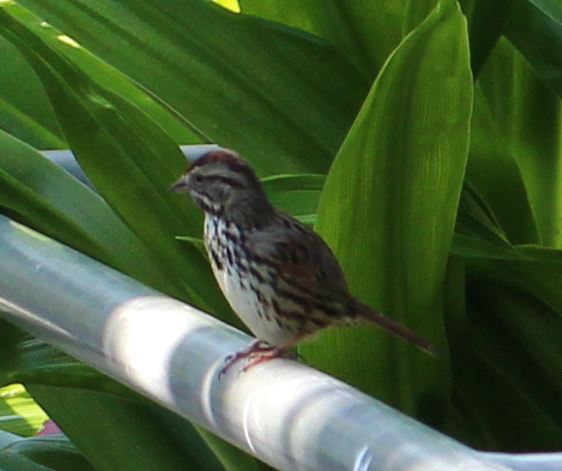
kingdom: Animalia
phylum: Chordata
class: Aves
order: Passeriformes
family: Passerellidae
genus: Melospiza
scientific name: Melospiza melodia
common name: Song sparrow
